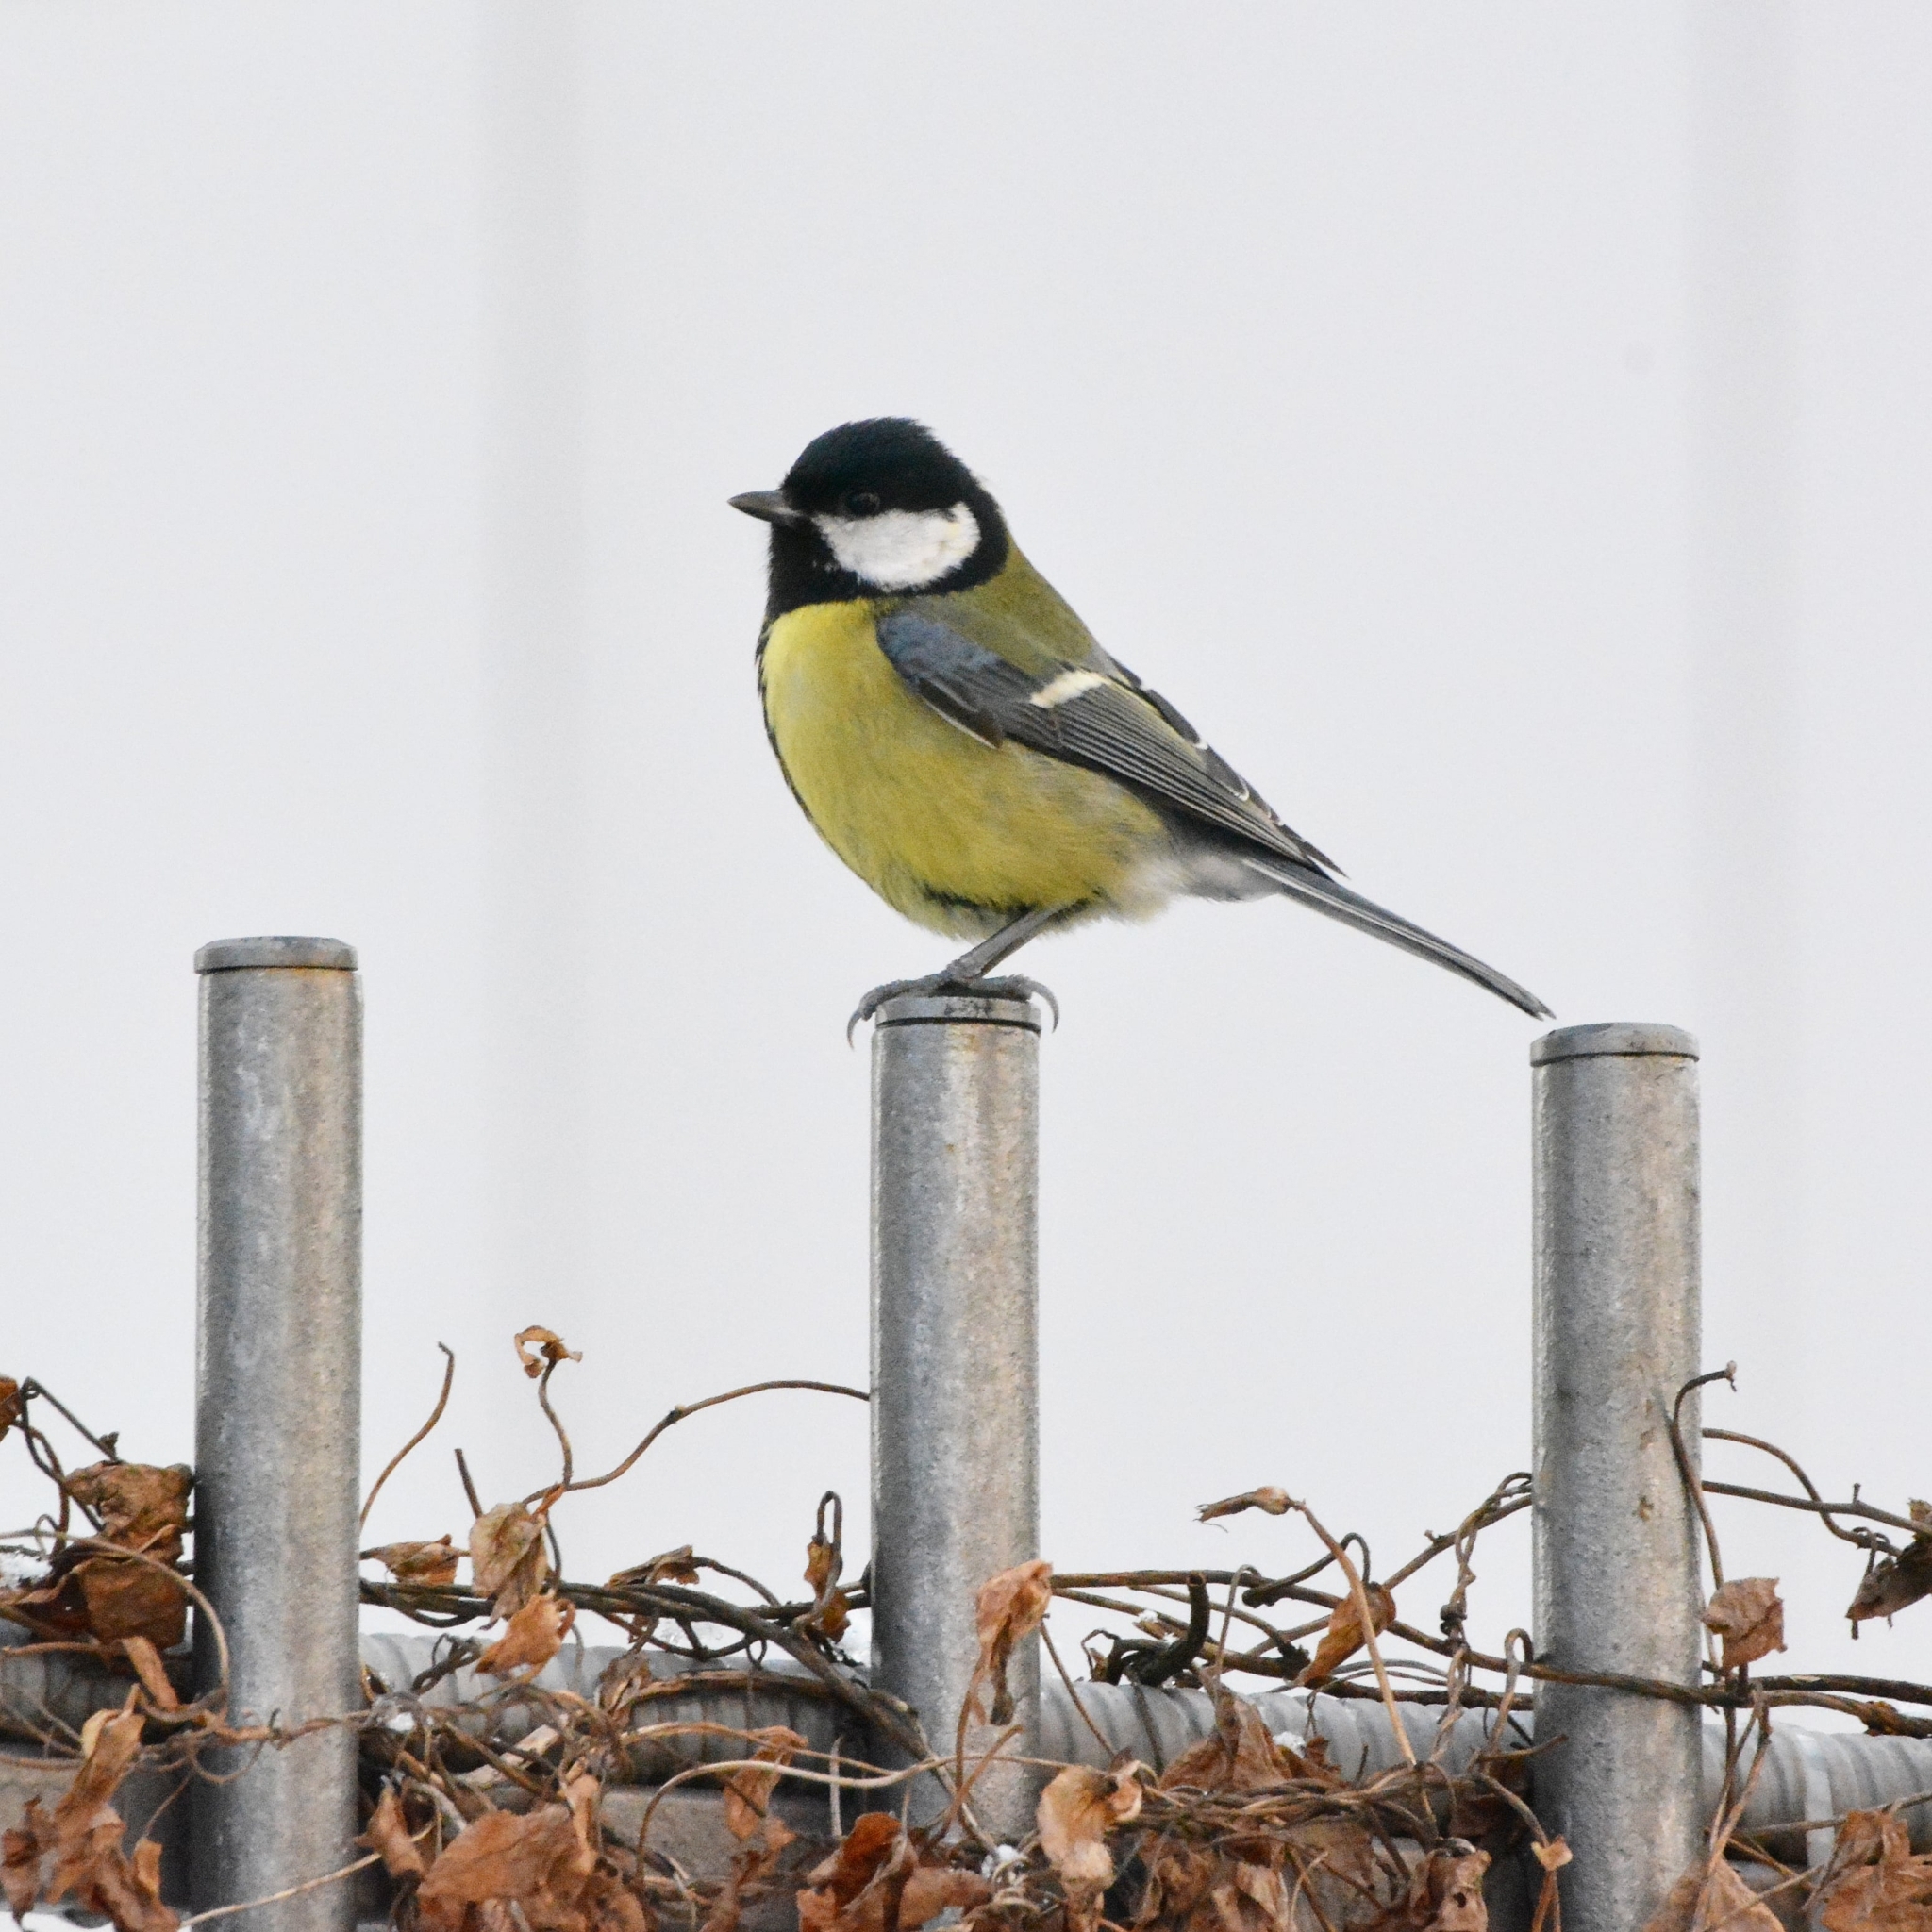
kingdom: Animalia
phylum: Chordata
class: Aves
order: Passeriformes
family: Paridae
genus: Parus
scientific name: Parus major
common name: Great tit
